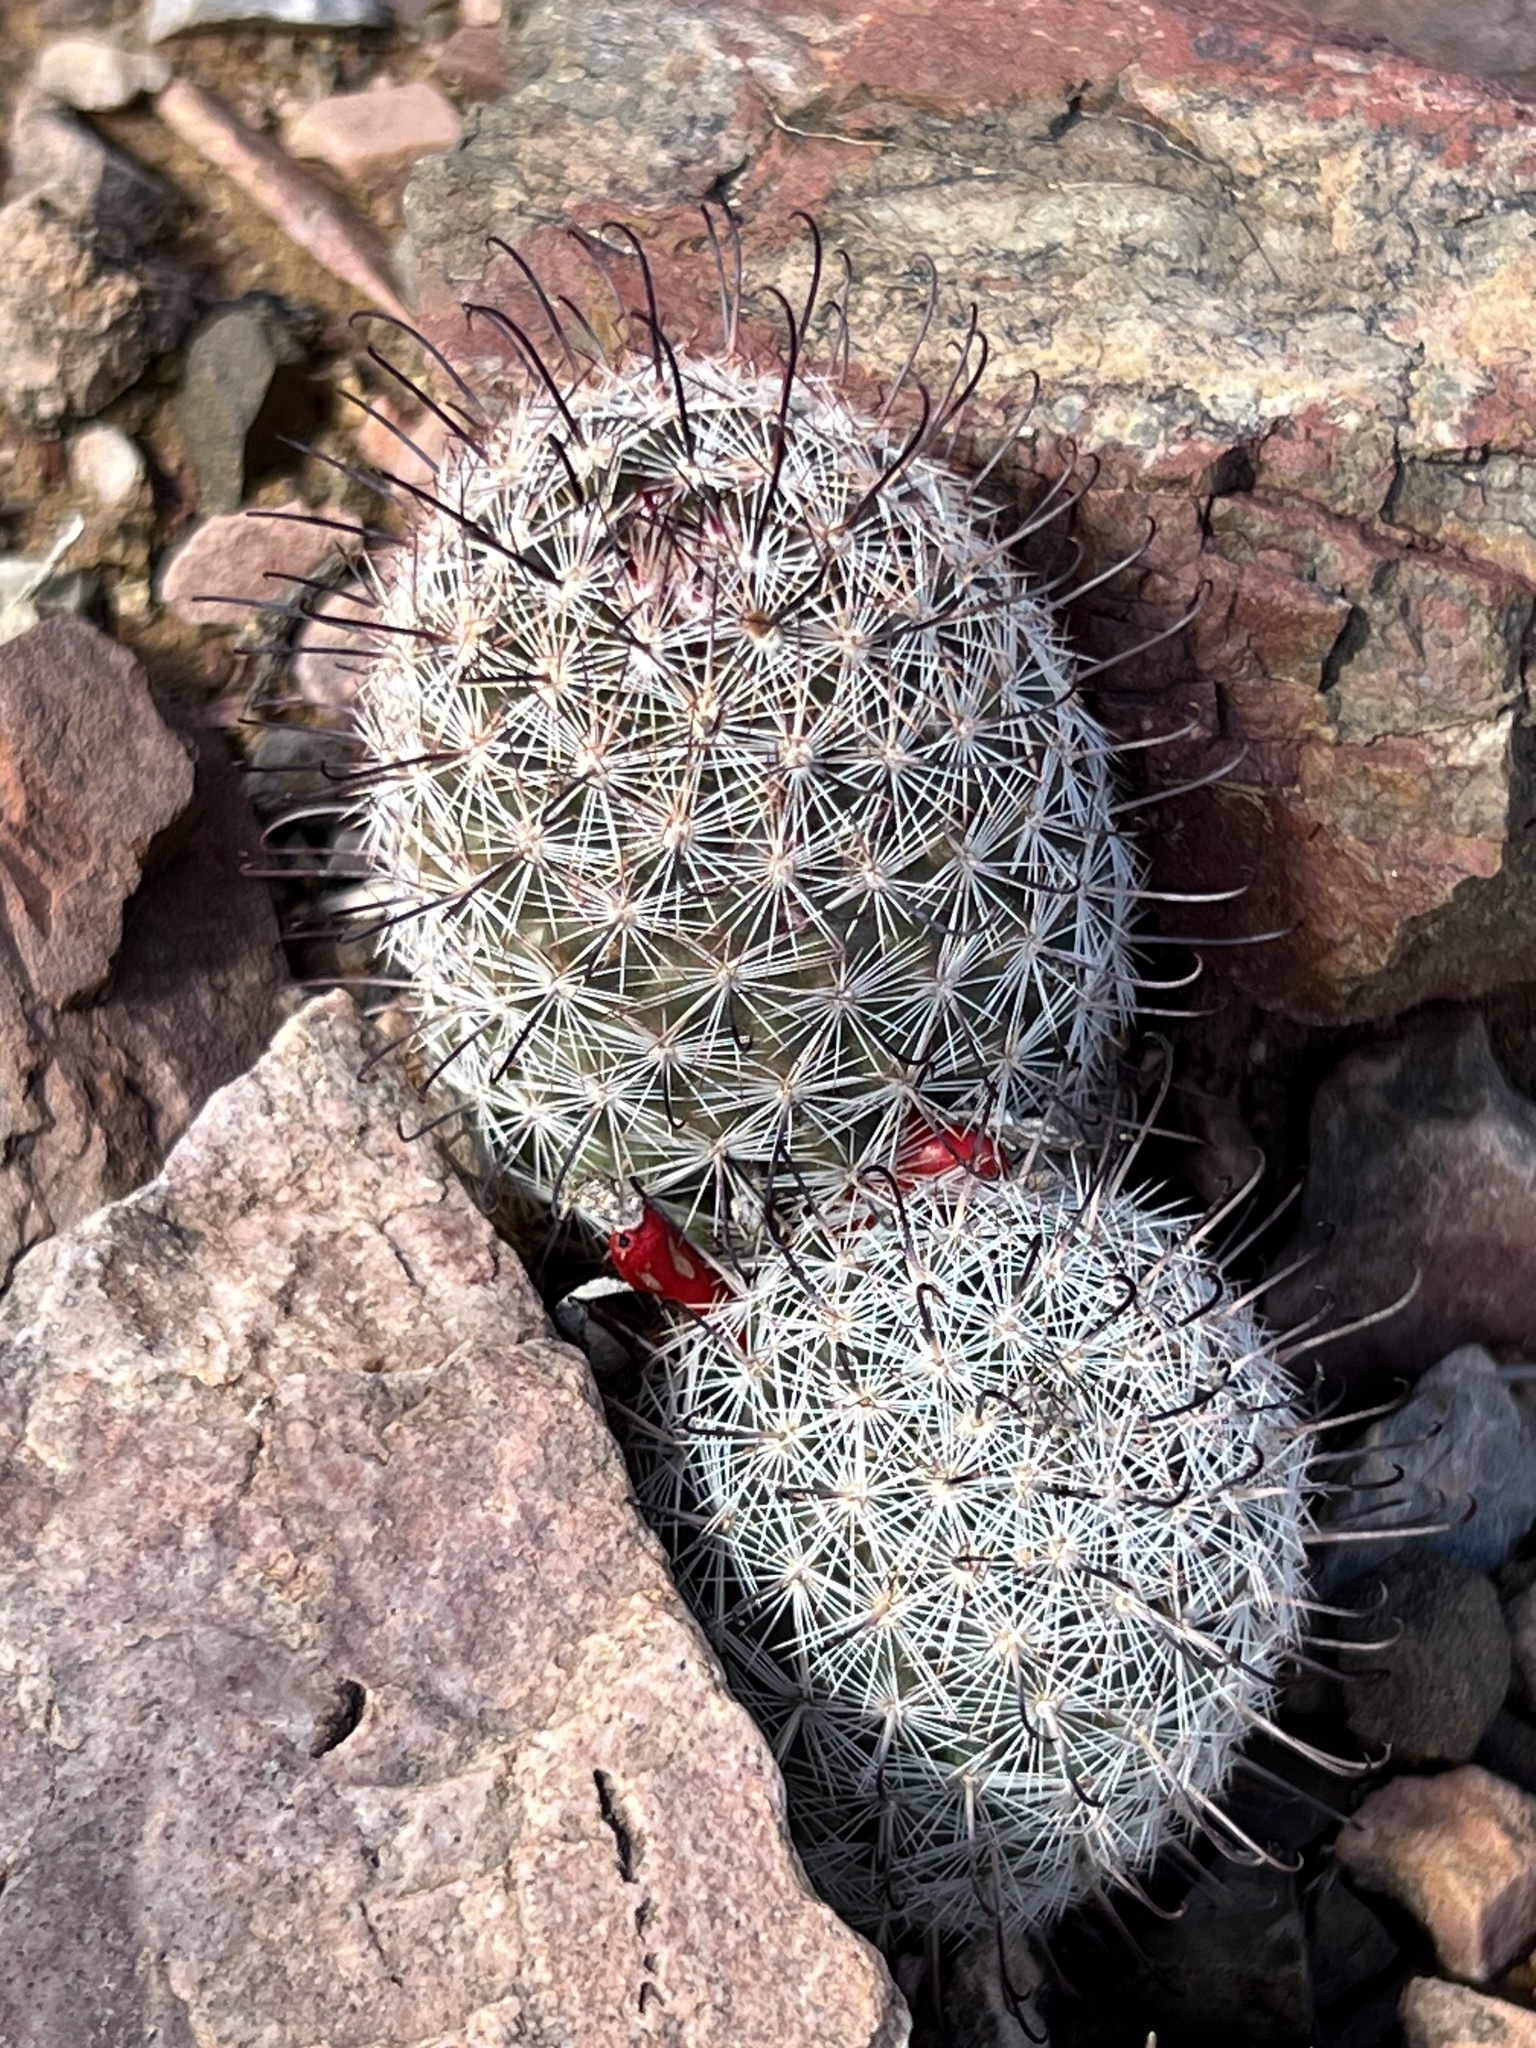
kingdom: Plantae
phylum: Tracheophyta
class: Magnoliopsida
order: Caryophyllales
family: Cactaceae
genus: Cochemiea
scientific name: Cochemiea grahamii
